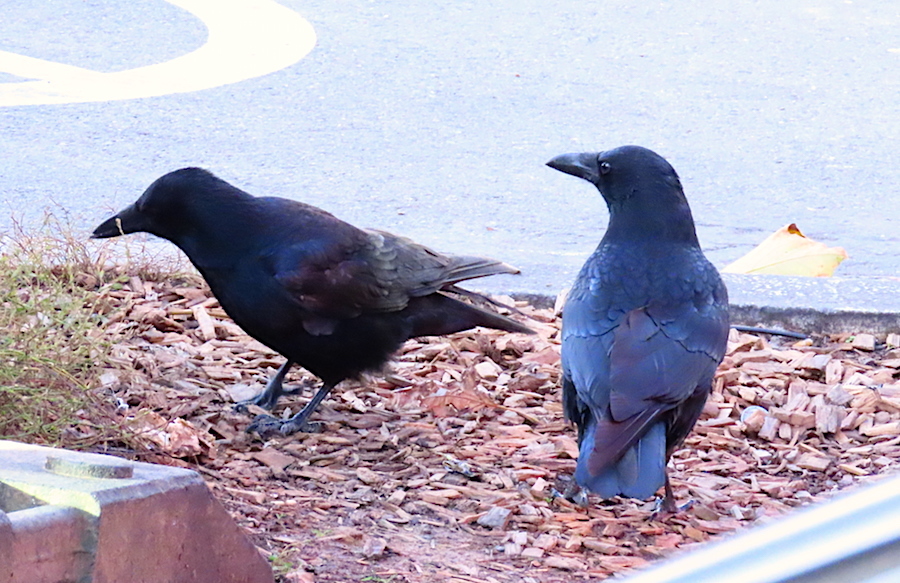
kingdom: Animalia
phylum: Chordata
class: Aves
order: Passeriformes
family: Corvidae
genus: Corvus
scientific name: Corvus corone
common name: Carrion crow
